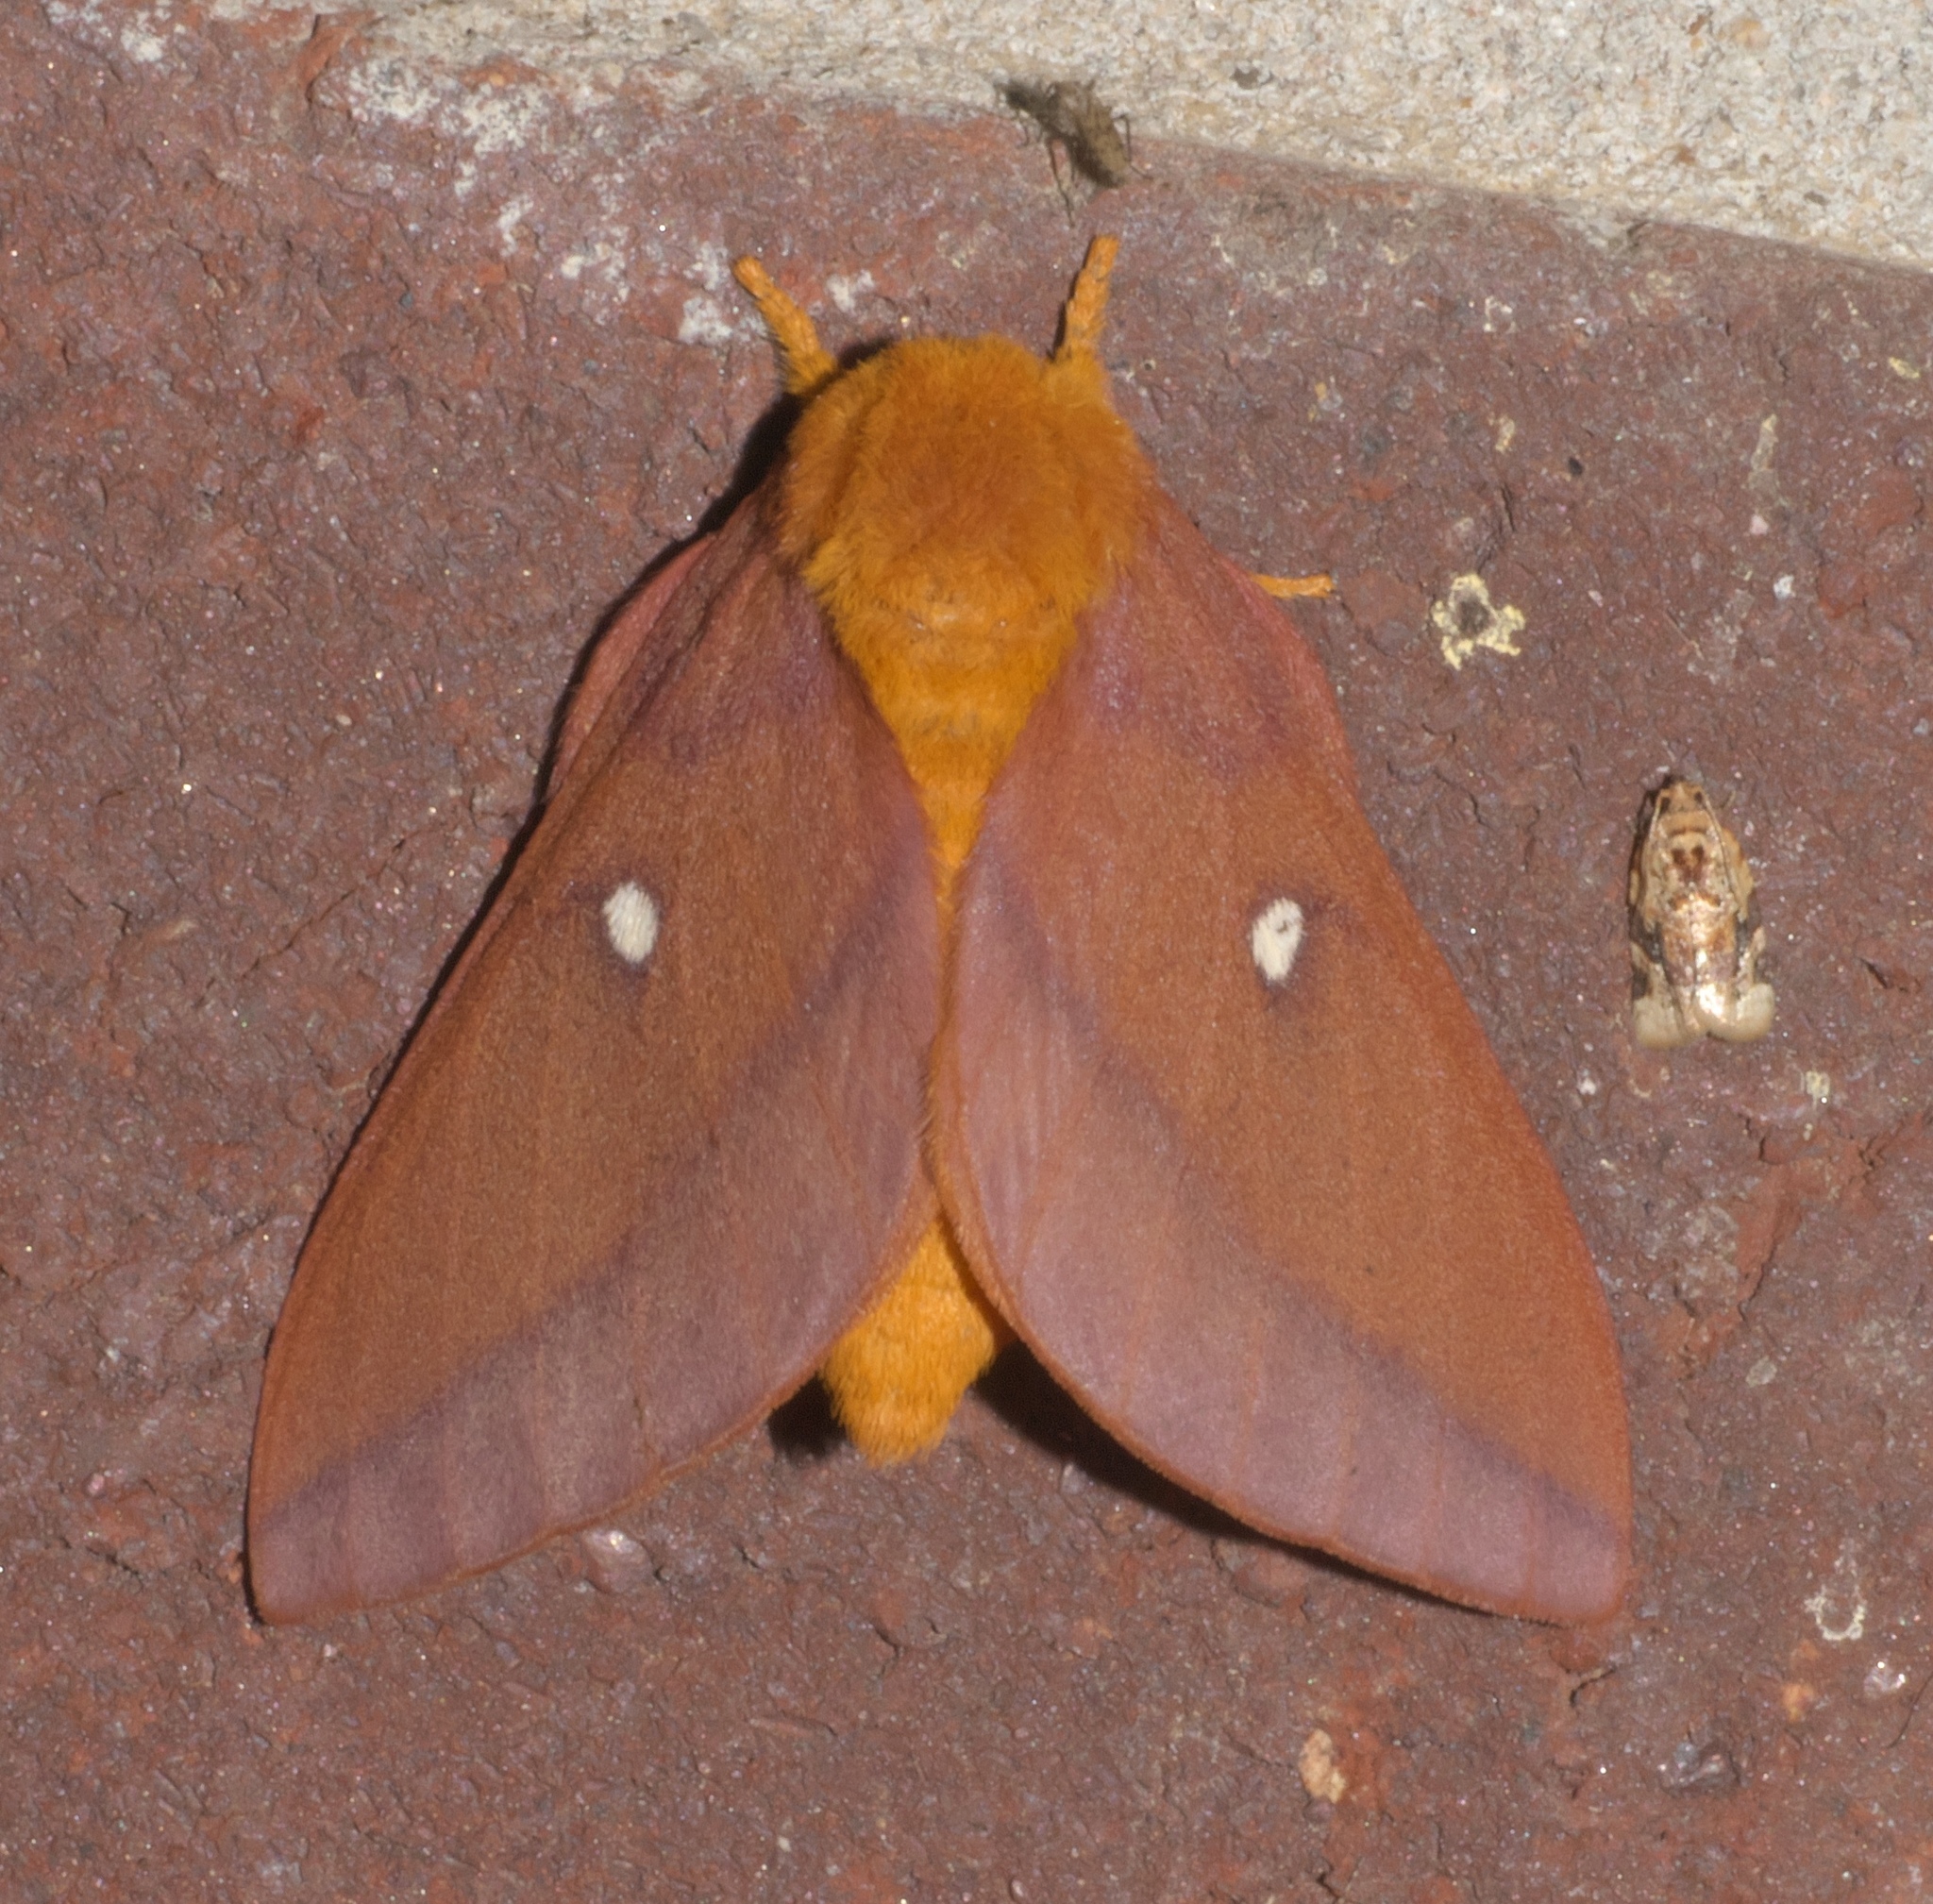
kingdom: Animalia
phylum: Arthropoda
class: Insecta
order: Lepidoptera
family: Saturniidae
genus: Anisota
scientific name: Anisota virginiensis
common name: Pink striped oakworm moth
